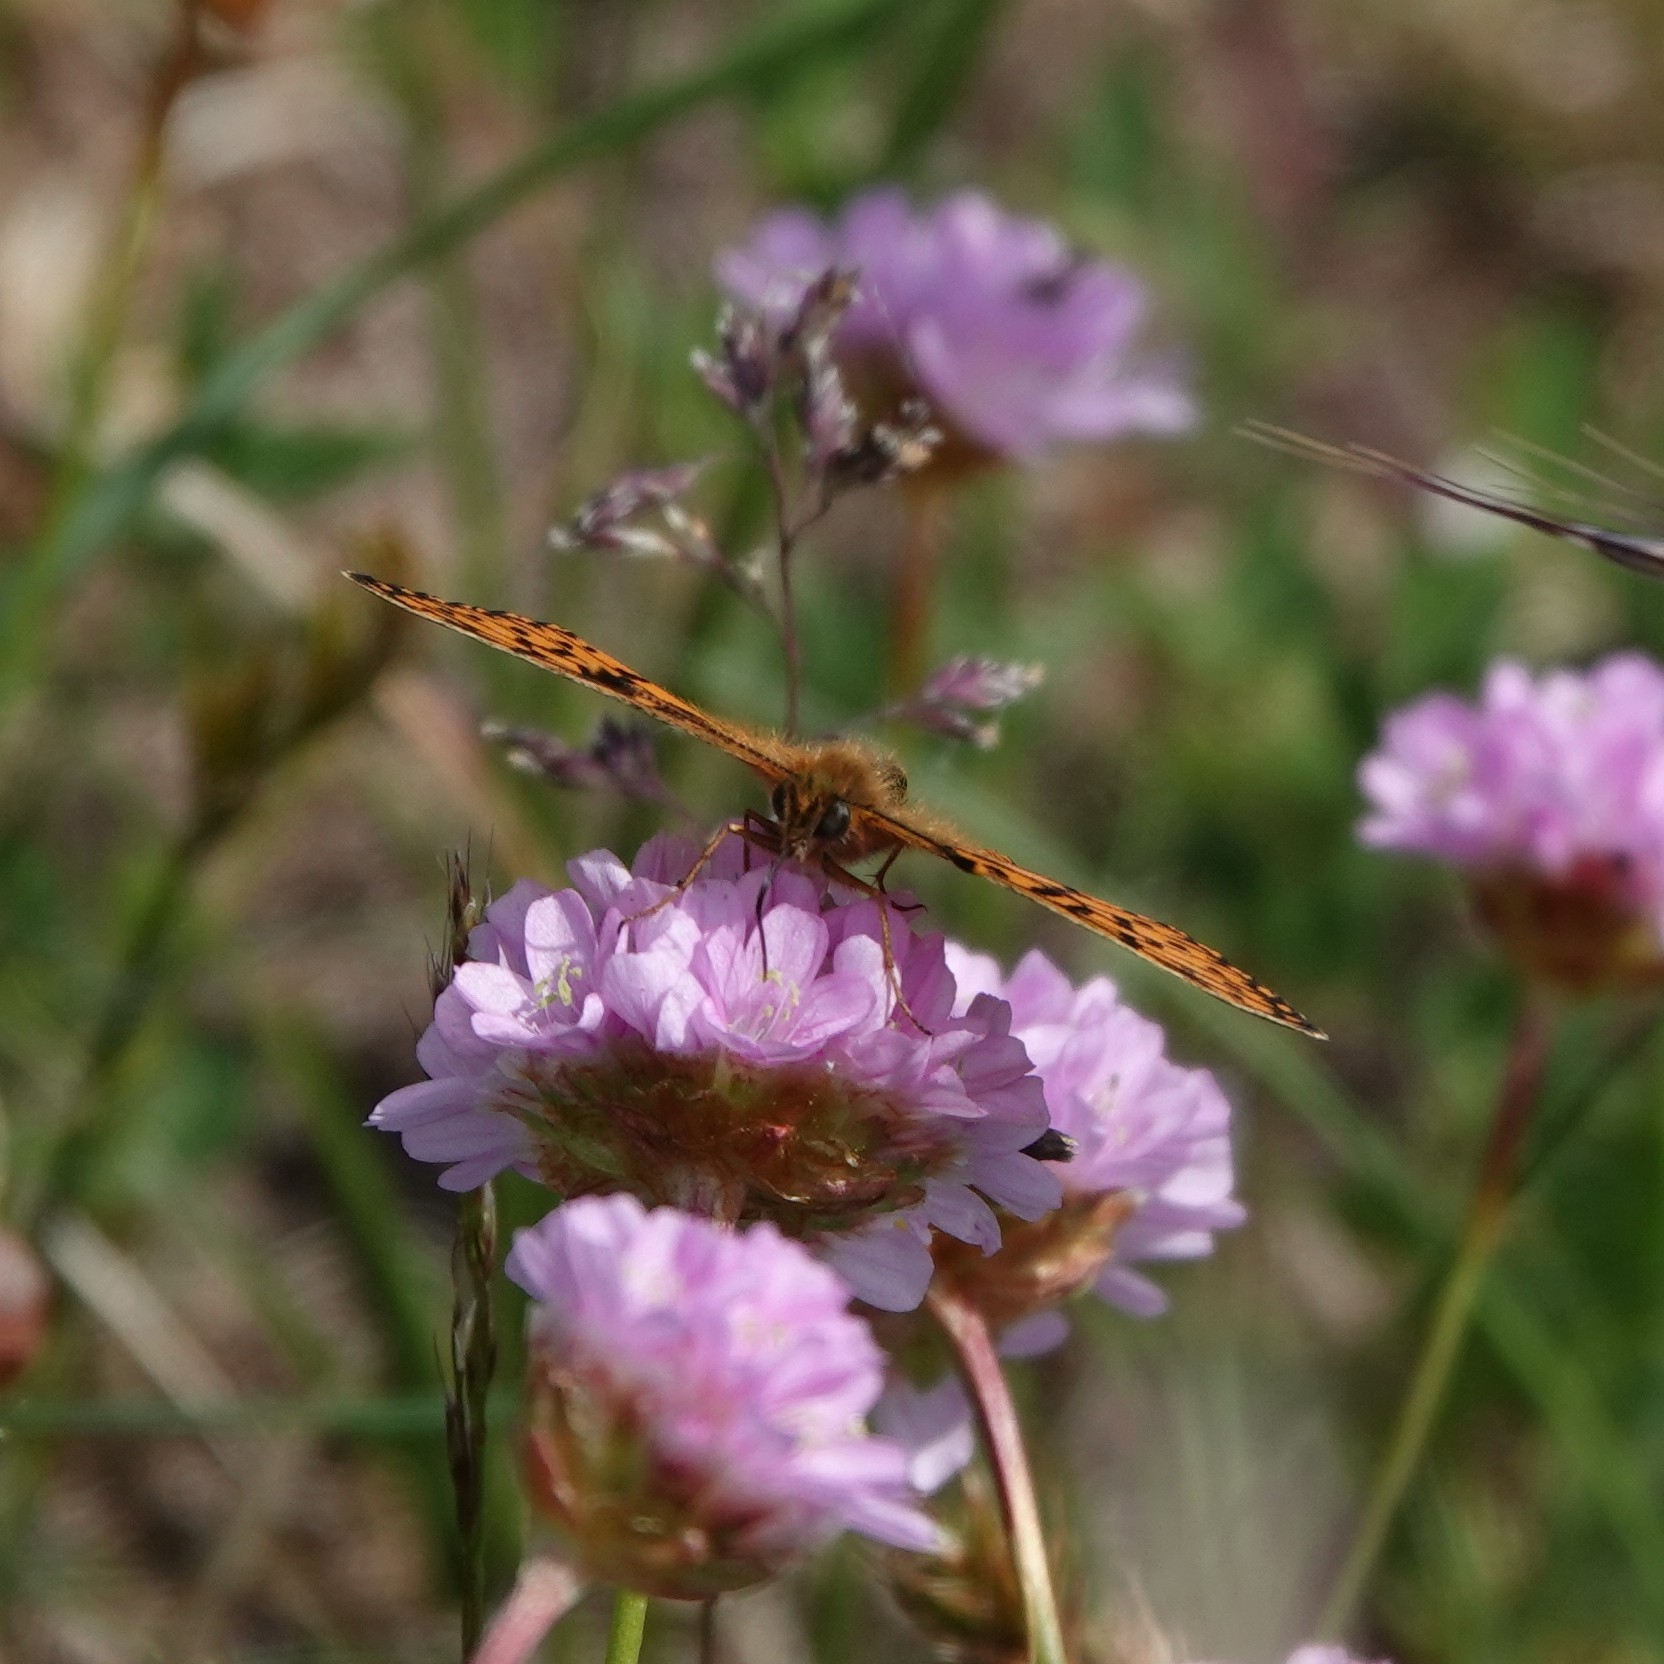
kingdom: Animalia
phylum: Arthropoda
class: Insecta
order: Lepidoptera
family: Nymphalidae
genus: Boloria
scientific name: Boloria selene
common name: Small pearl-bordered fritillary
